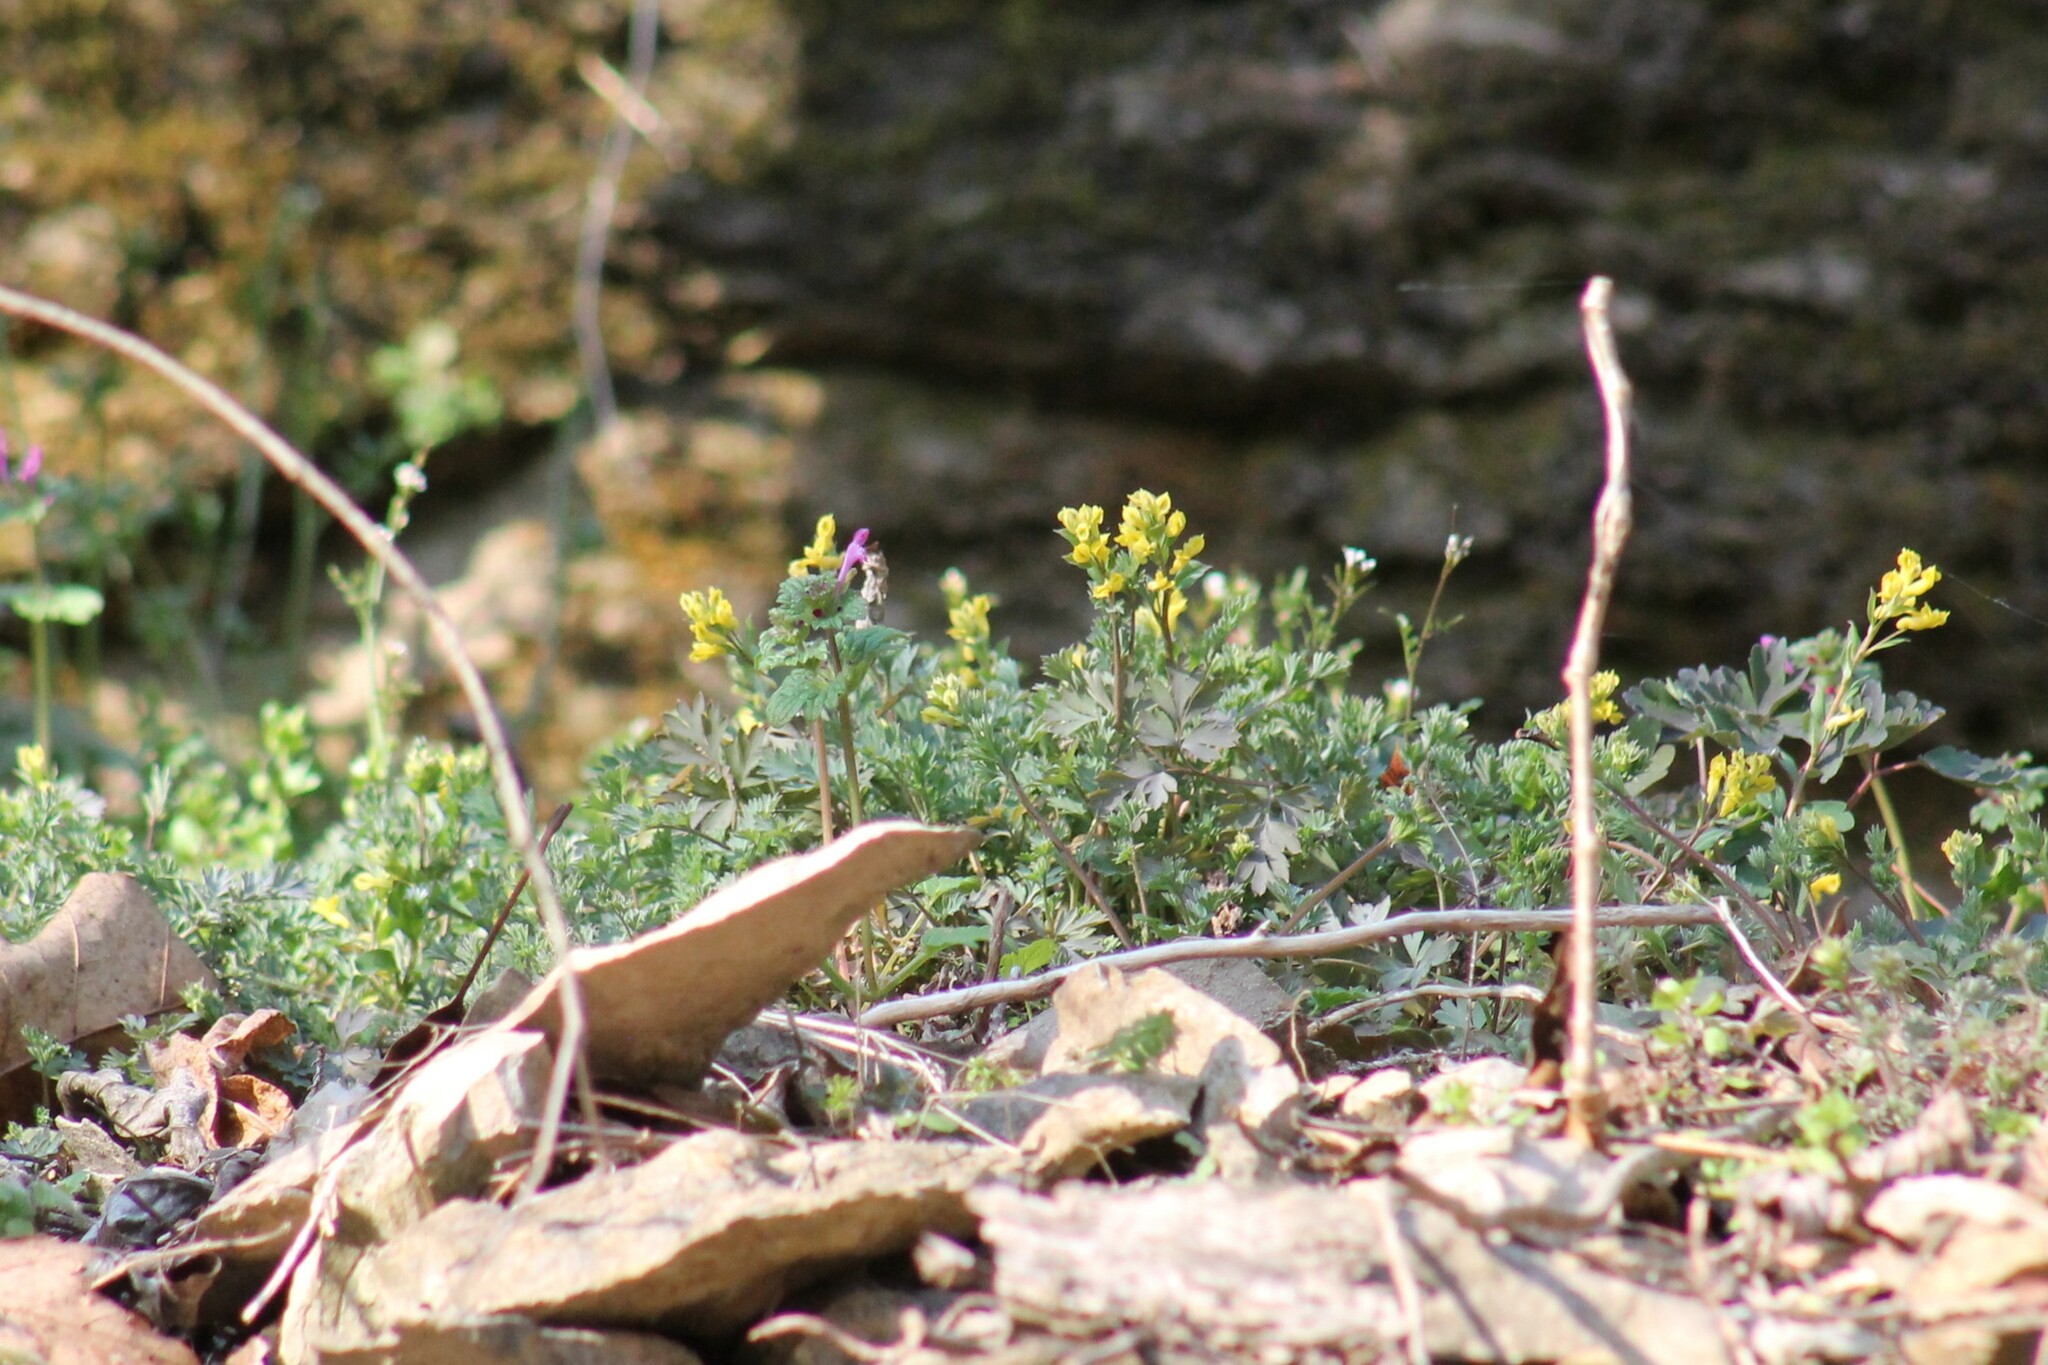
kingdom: Plantae
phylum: Tracheophyta
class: Magnoliopsida
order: Ranunculales
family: Papaveraceae
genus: Corydalis
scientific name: Corydalis flavula
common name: Yellow corydalis
